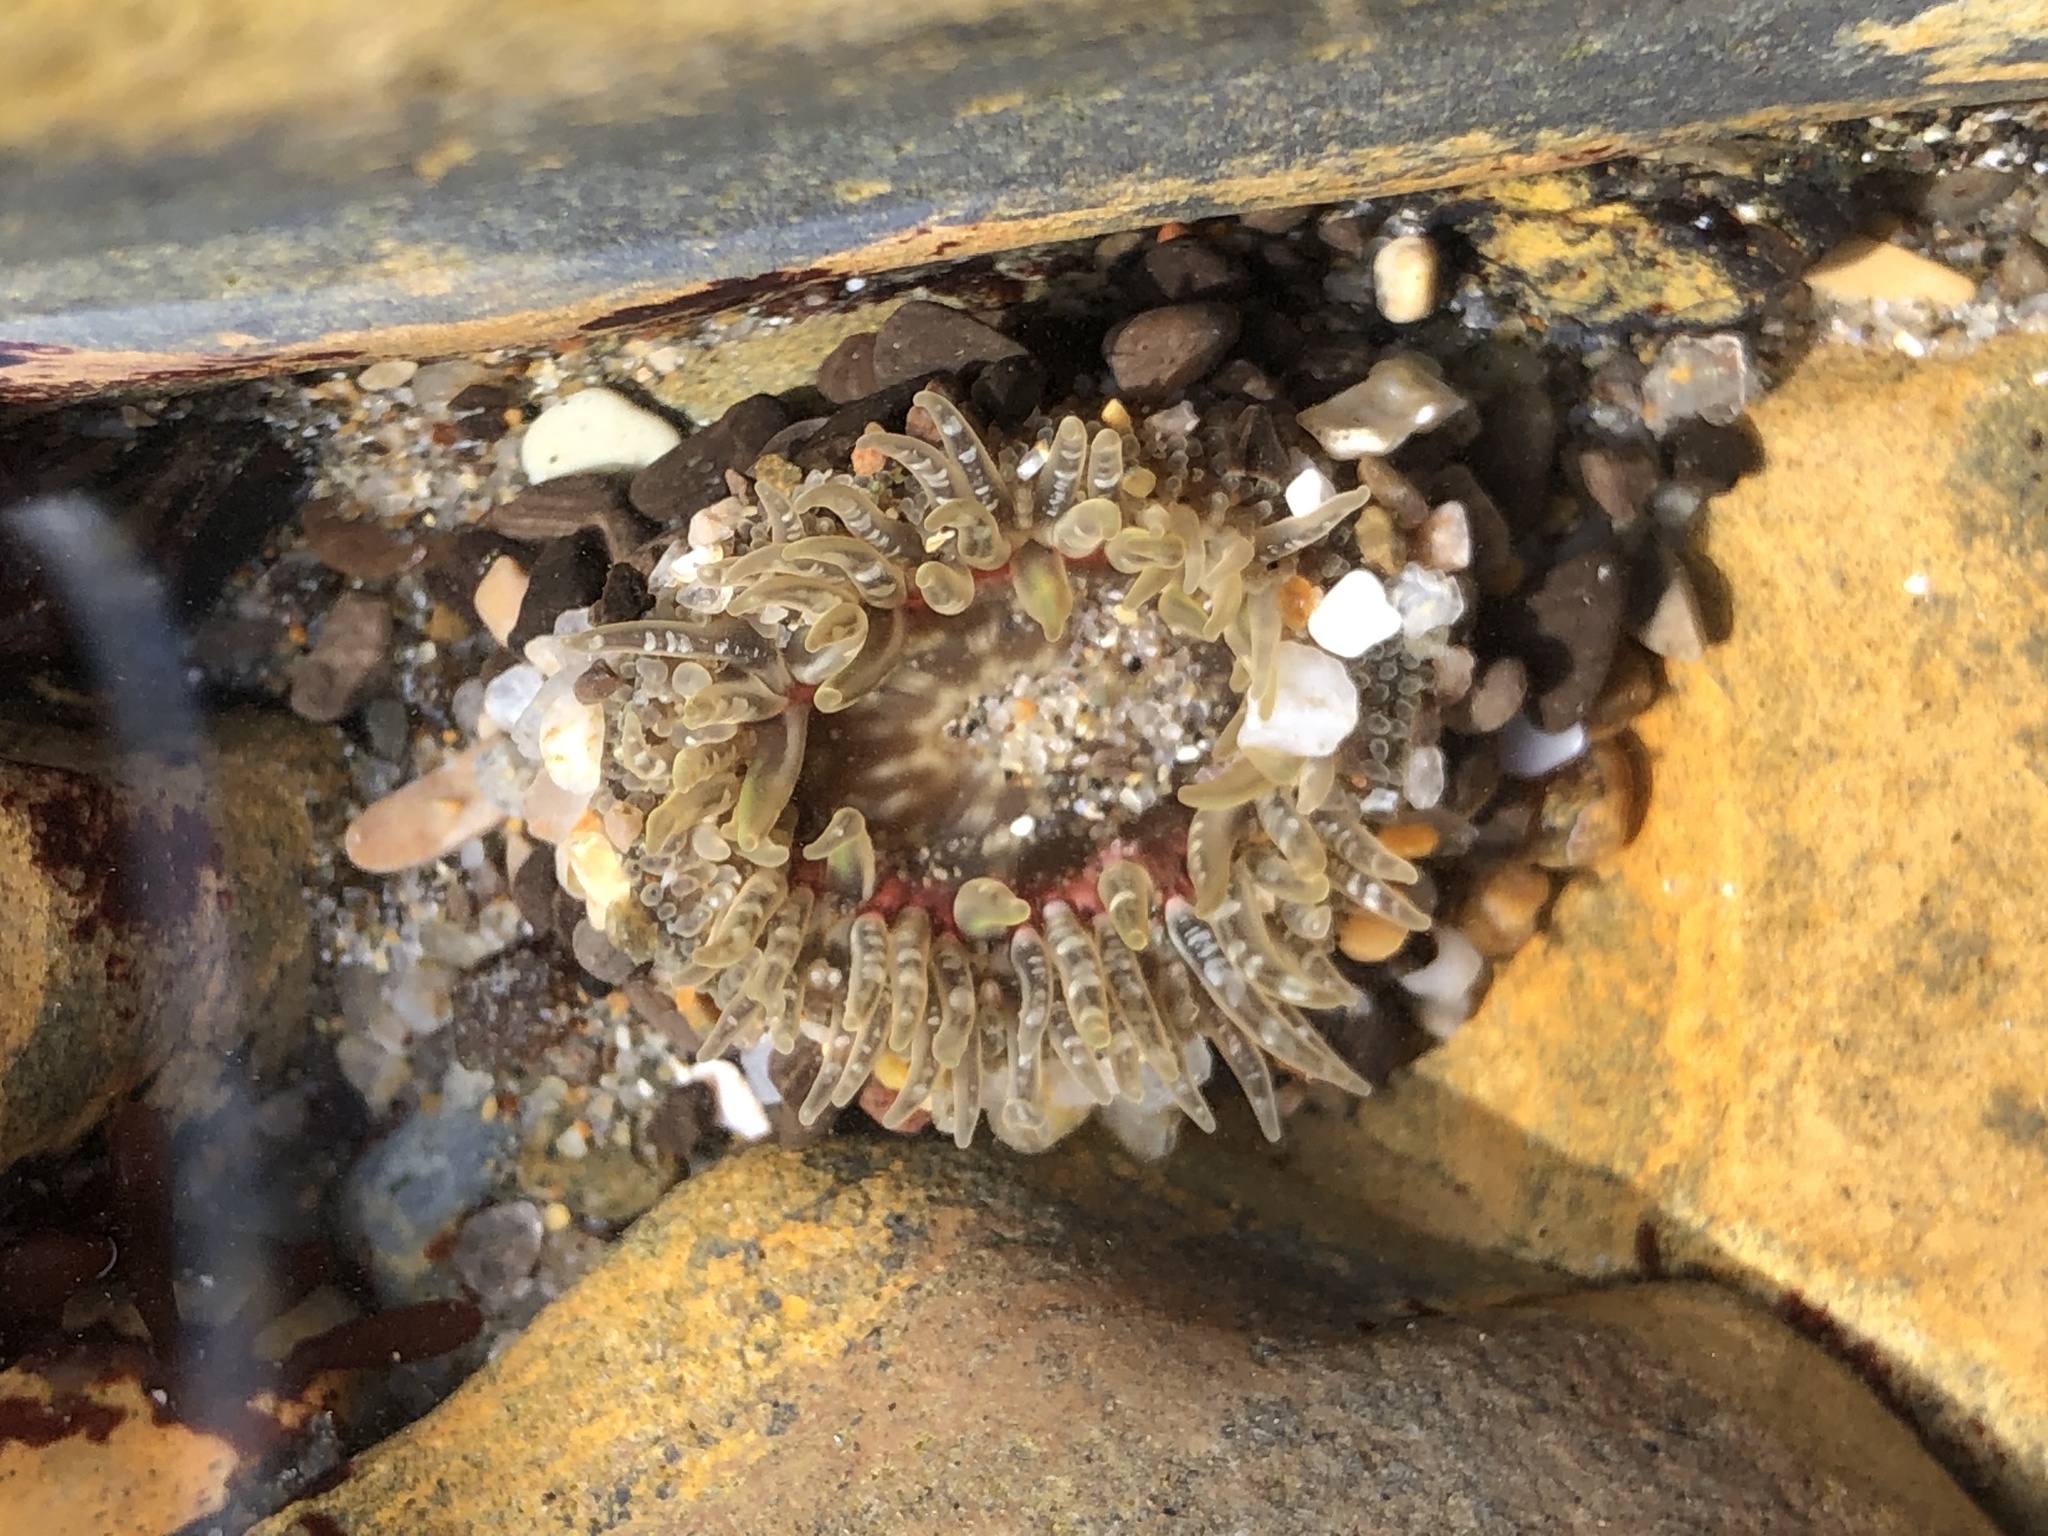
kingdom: Animalia
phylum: Cnidaria
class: Anthozoa
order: Actiniaria
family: Actiniidae
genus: Anthopleura
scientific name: Anthopleura artemisia
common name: Buried sea anemone
